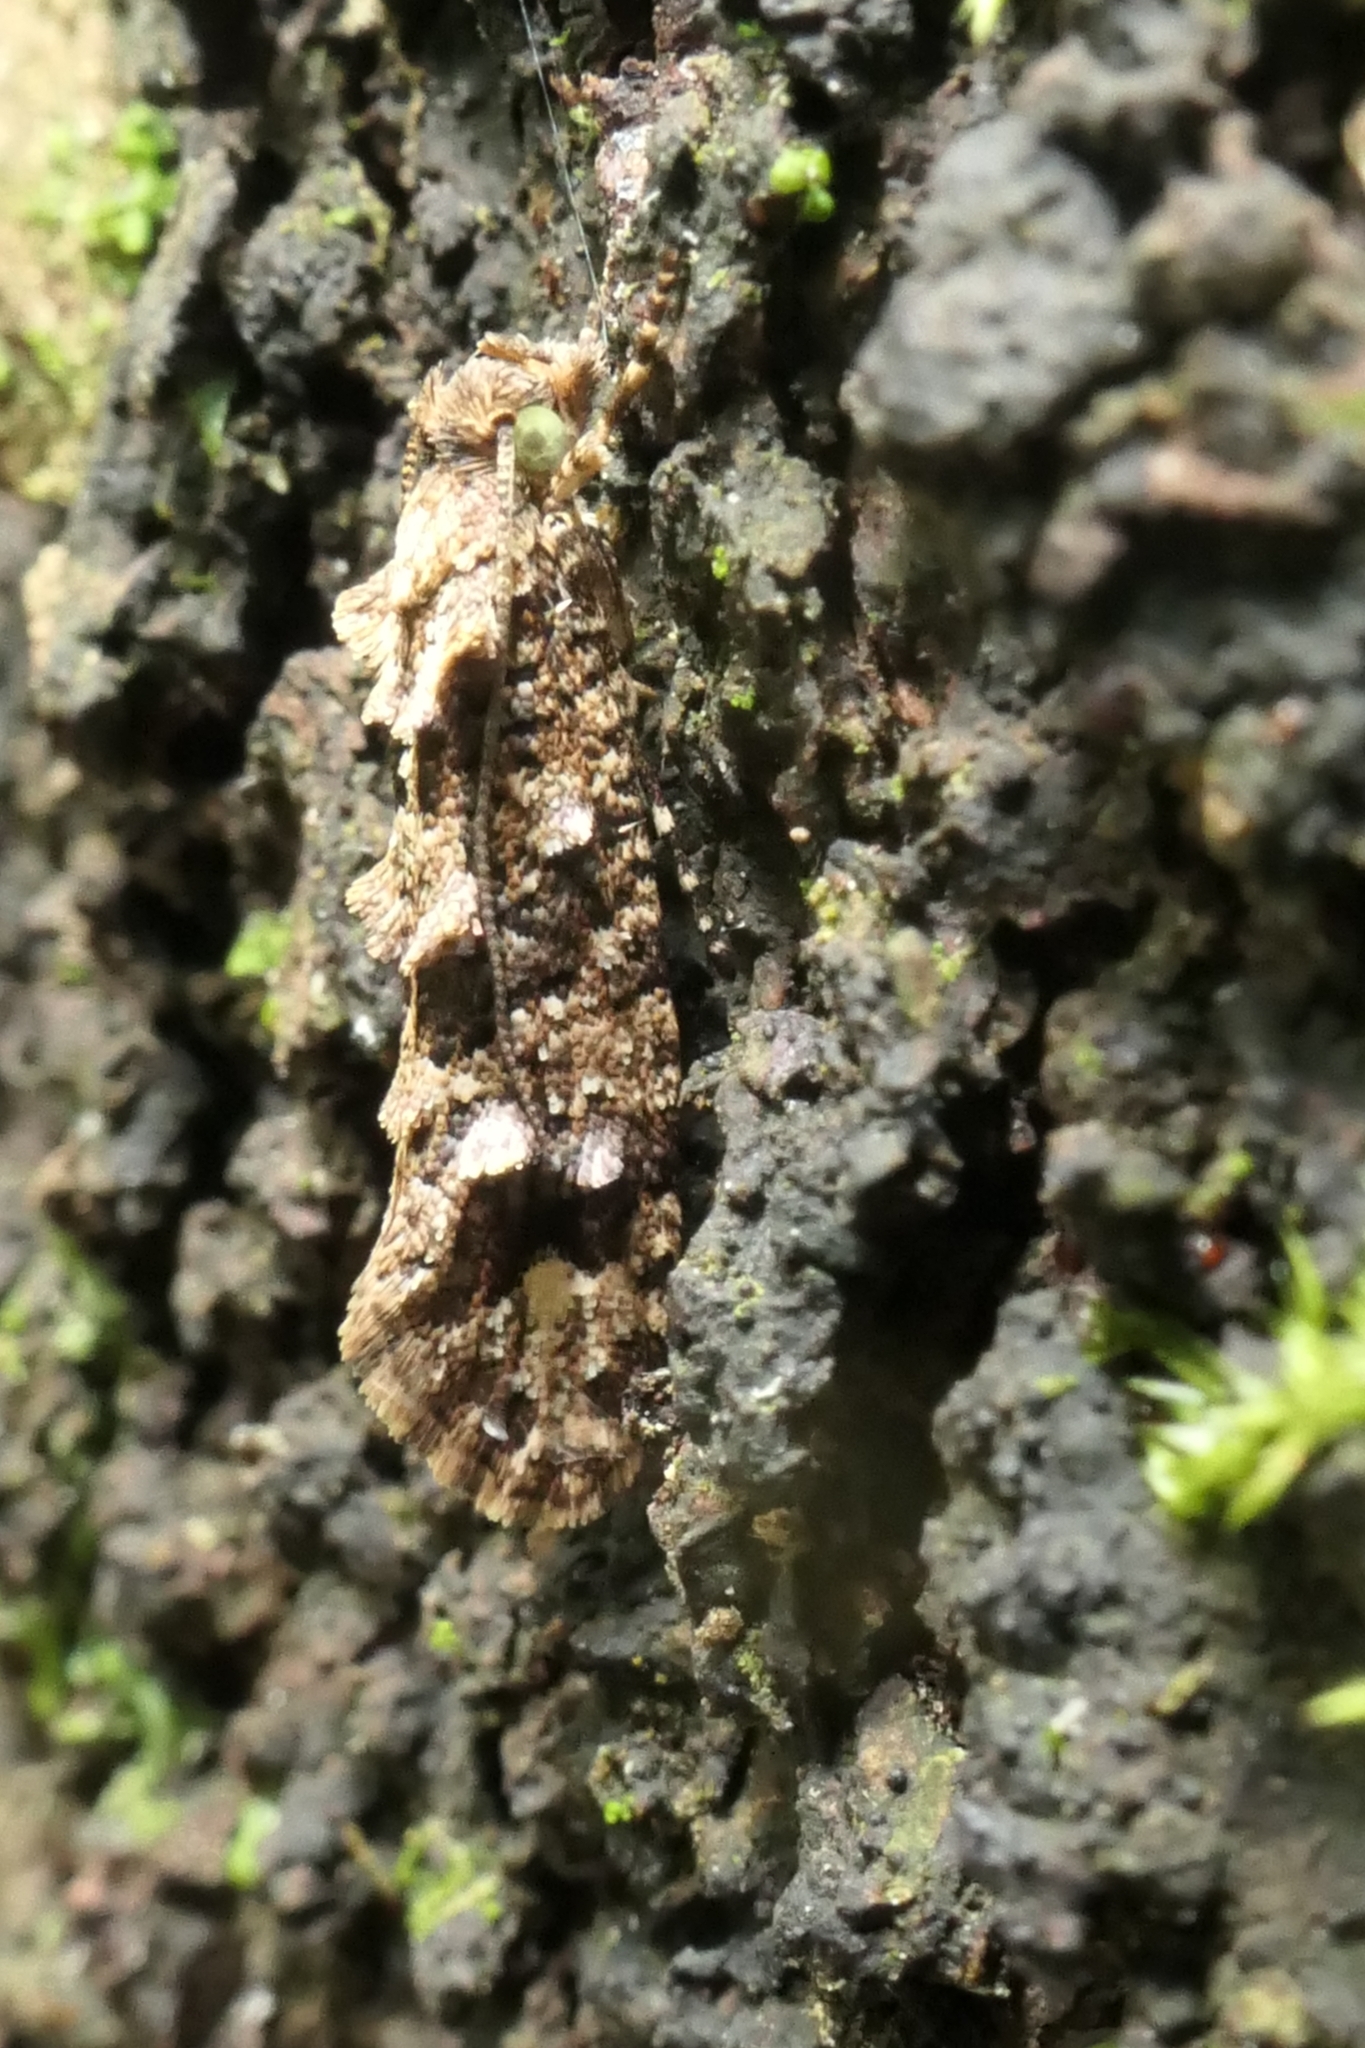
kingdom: Animalia
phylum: Arthropoda
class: Insecta
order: Lepidoptera
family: Tineidae
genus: Lysiphragma
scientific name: Lysiphragma epixyla
